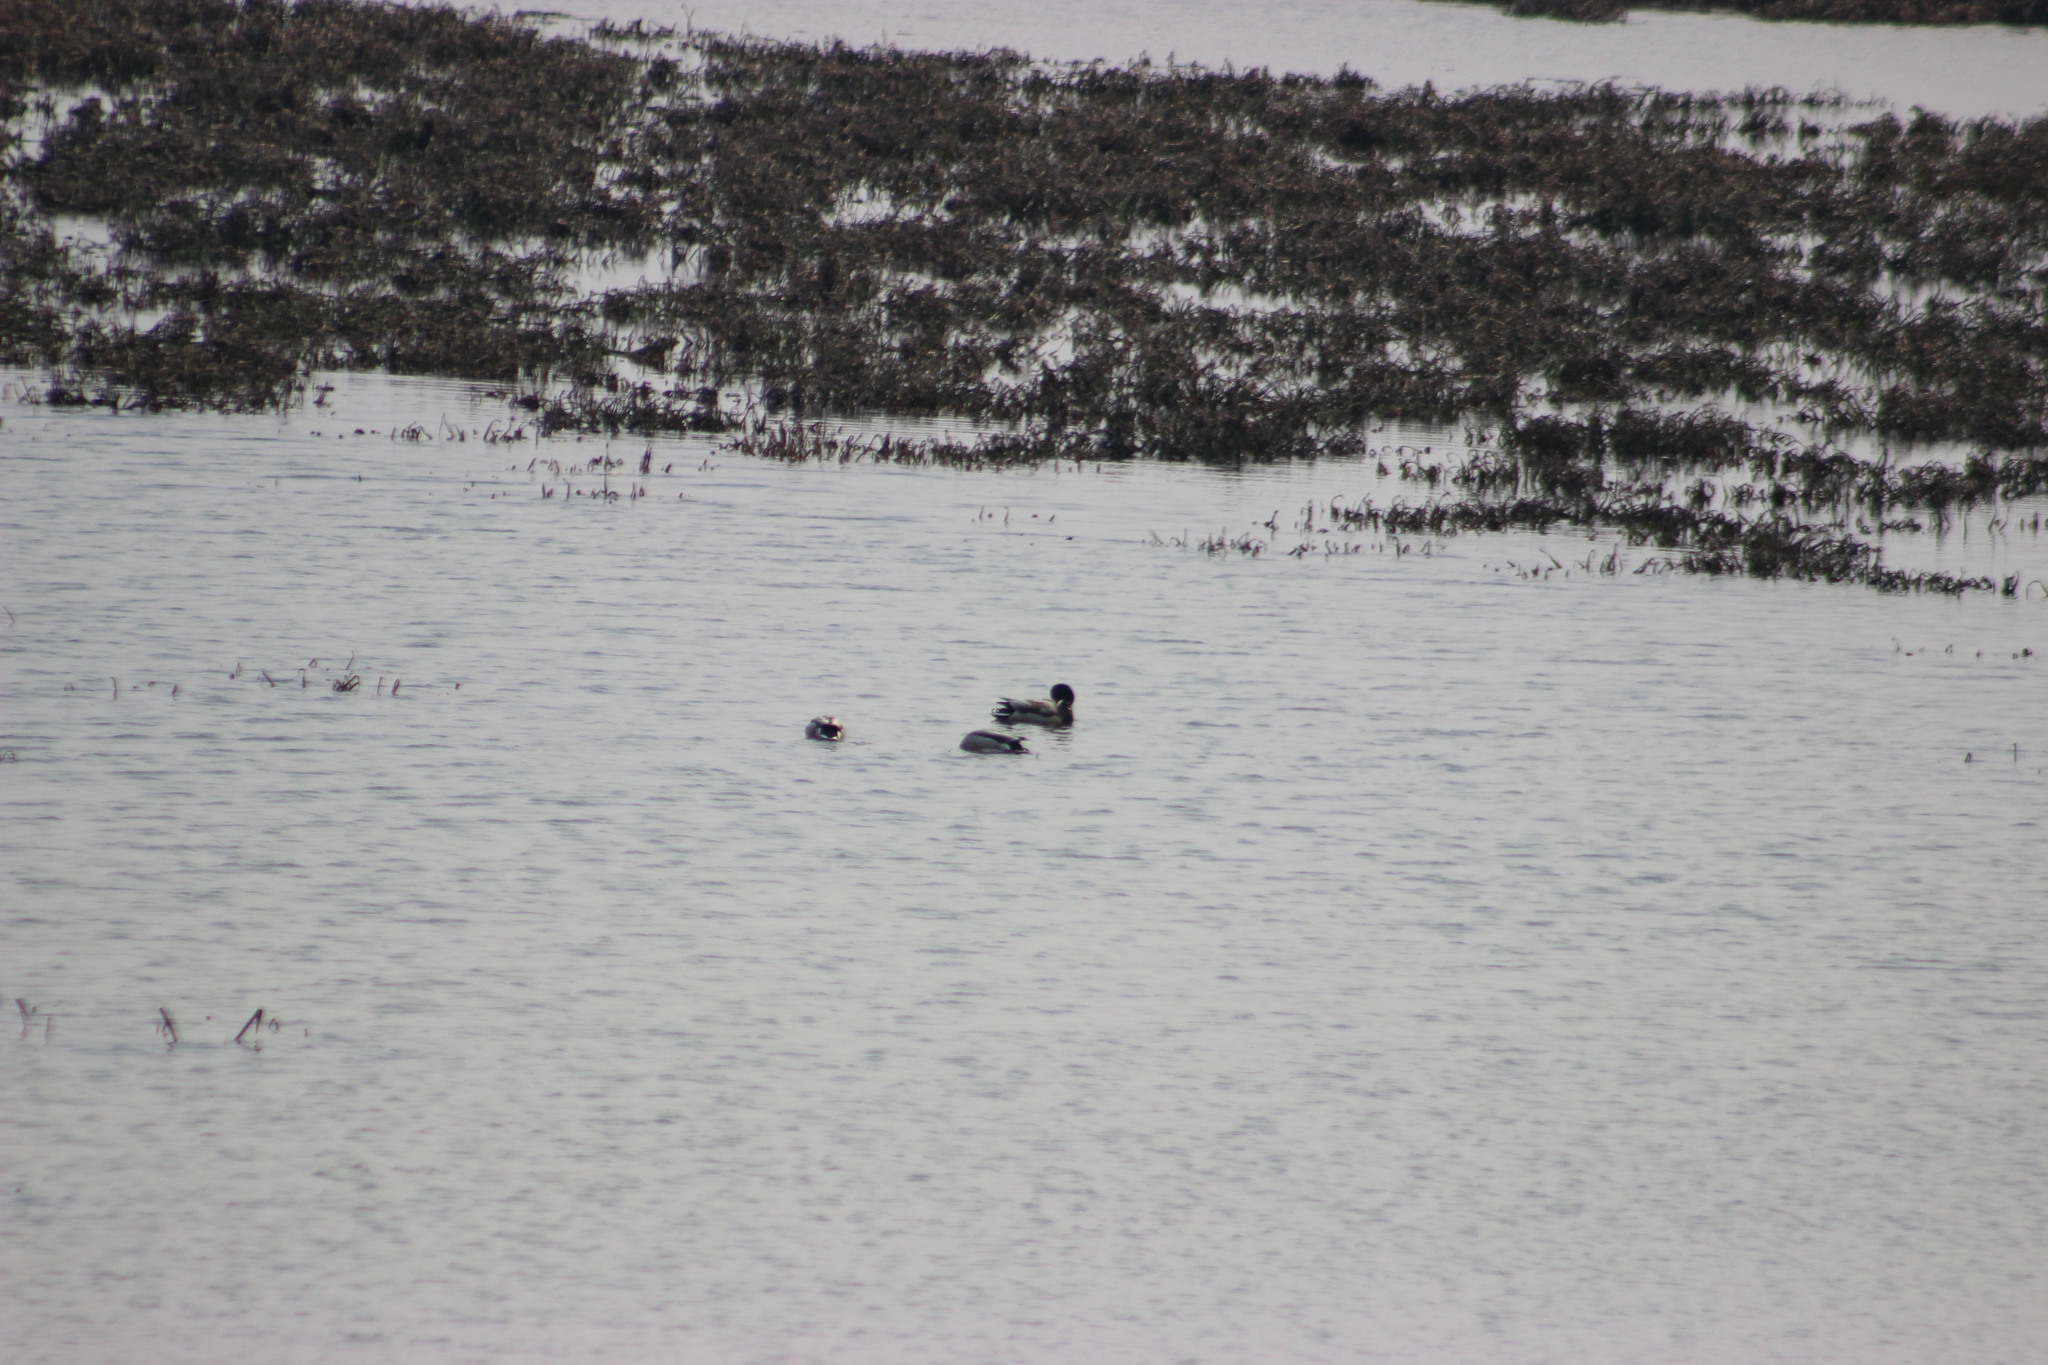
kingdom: Animalia
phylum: Chordata
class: Aves
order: Anseriformes
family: Anatidae
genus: Anas
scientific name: Anas platyrhynchos
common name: Mallard
